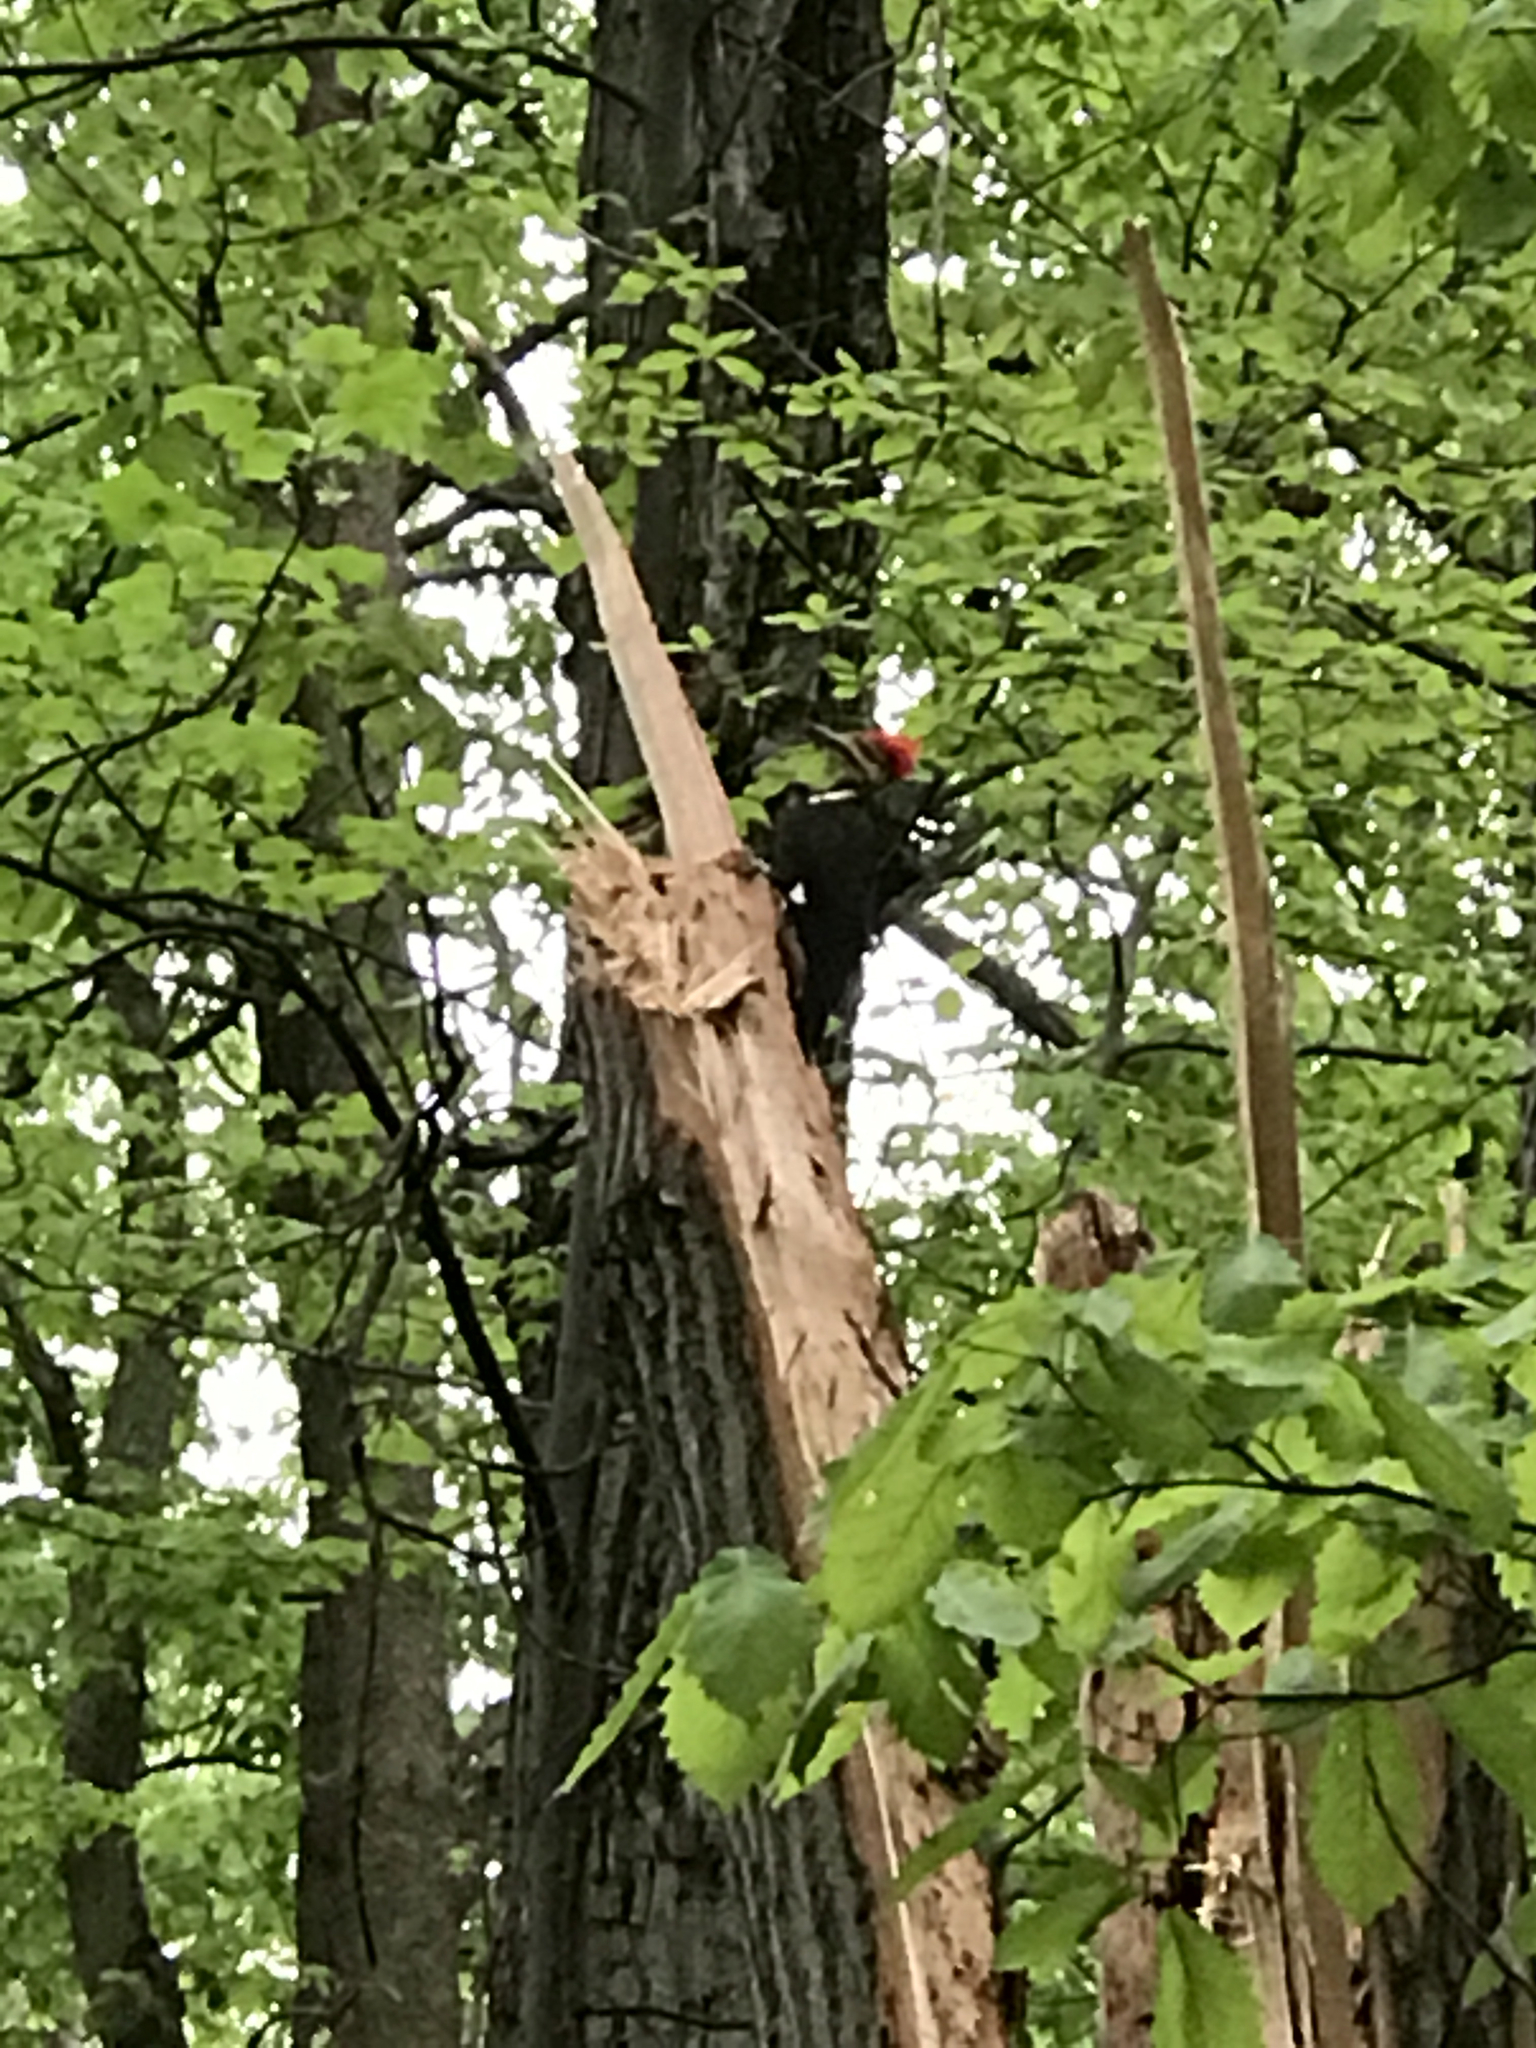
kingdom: Animalia
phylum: Chordata
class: Aves
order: Piciformes
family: Picidae
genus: Dryocopus
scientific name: Dryocopus pileatus
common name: Pileated woodpecker
